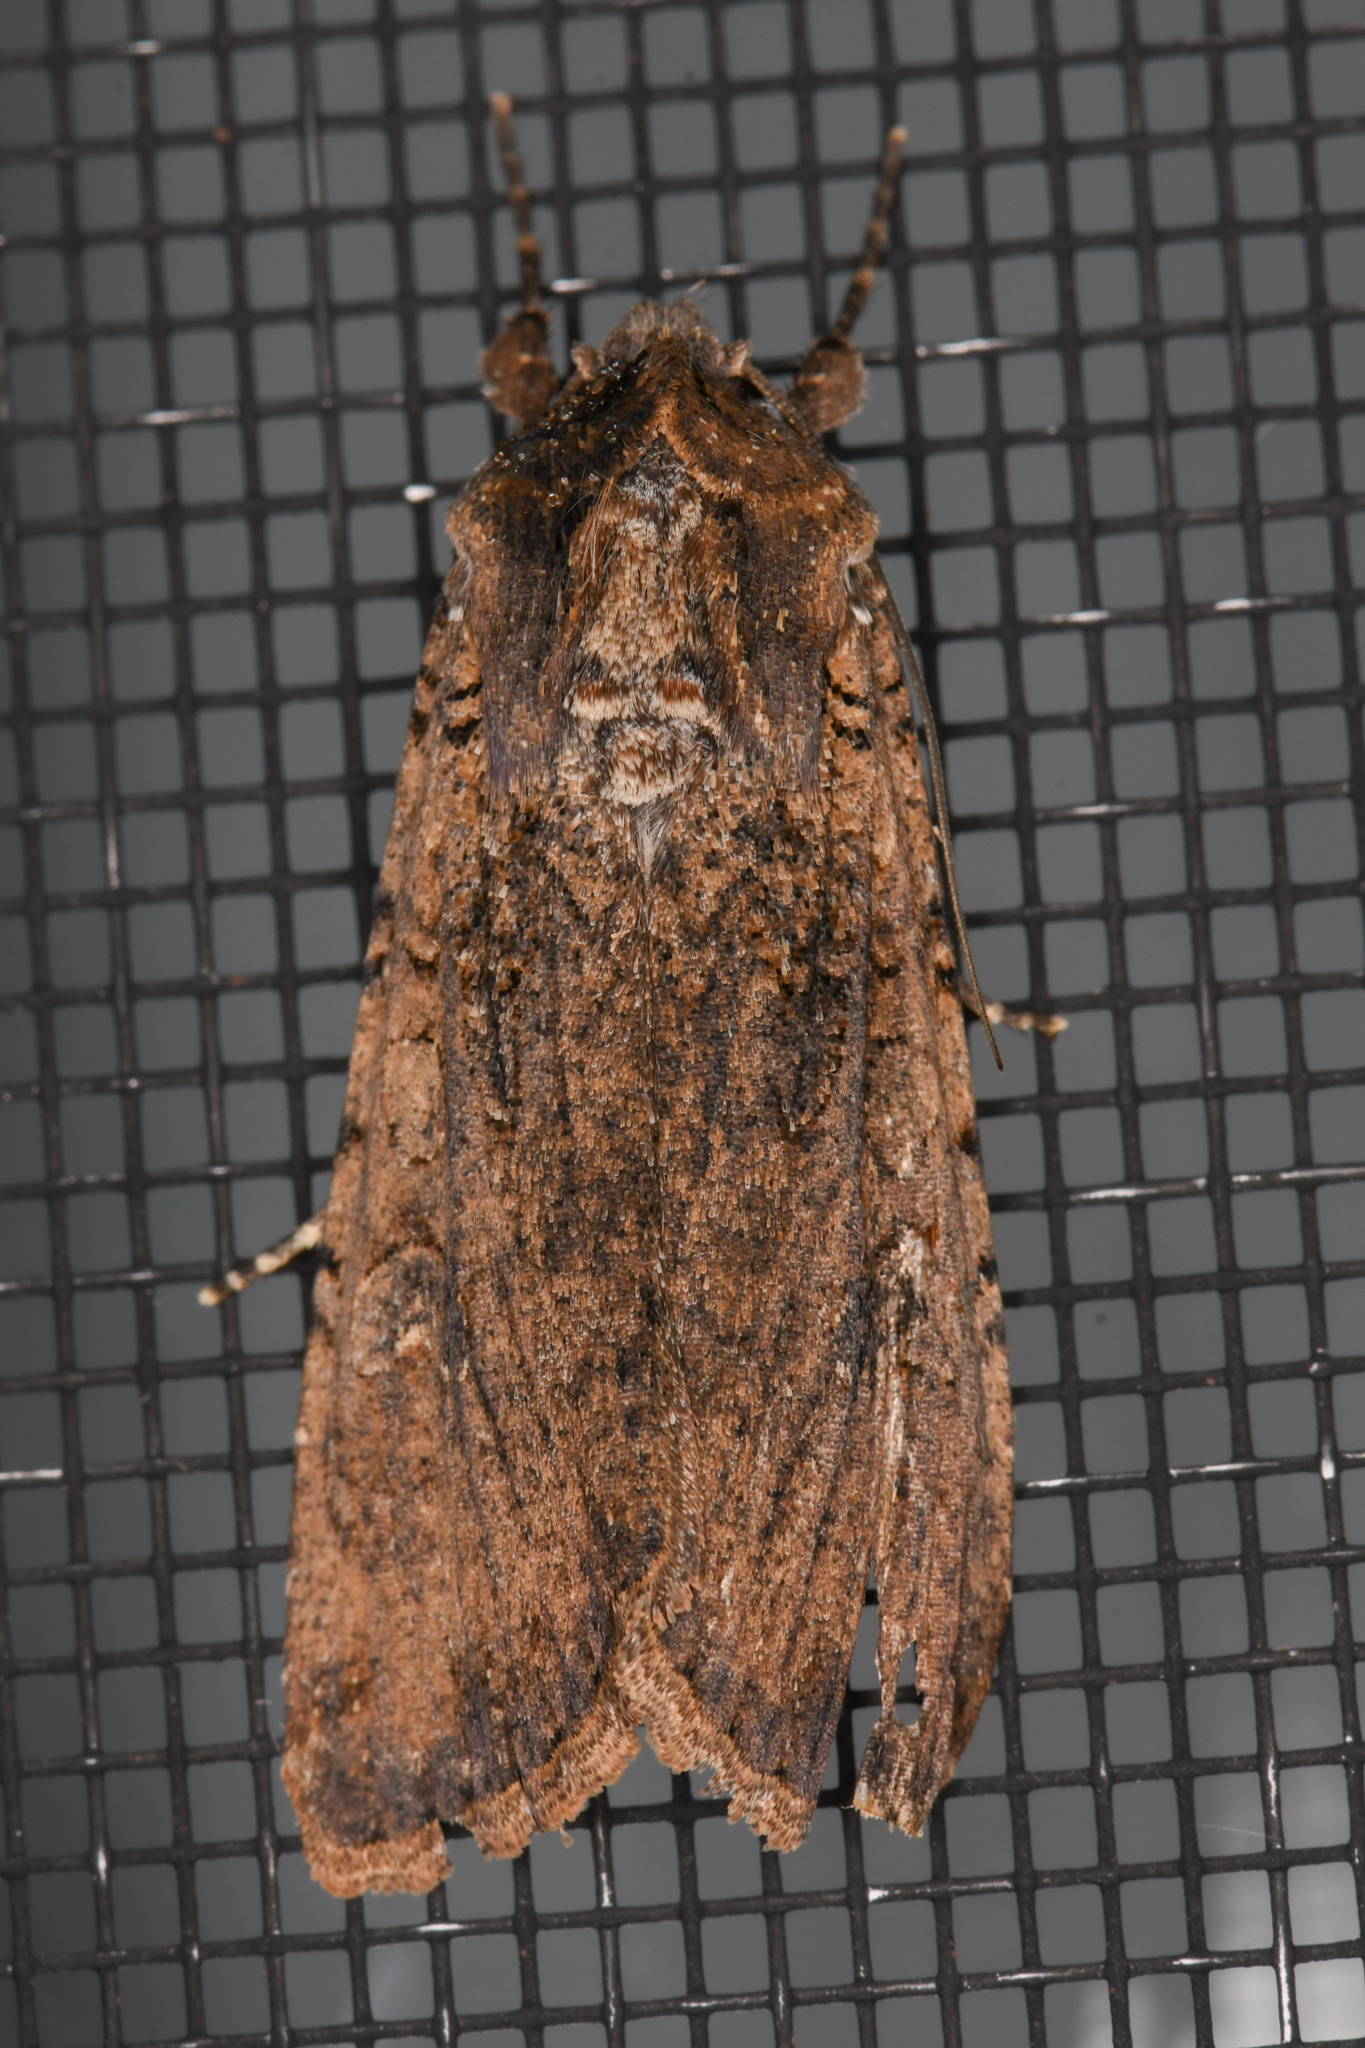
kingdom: Animalia
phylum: Arthropoda
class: Insecta
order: Lepidoptera
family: Noctuidae
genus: Peridroma
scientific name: Peridroma saucia
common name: Pearly underwing
